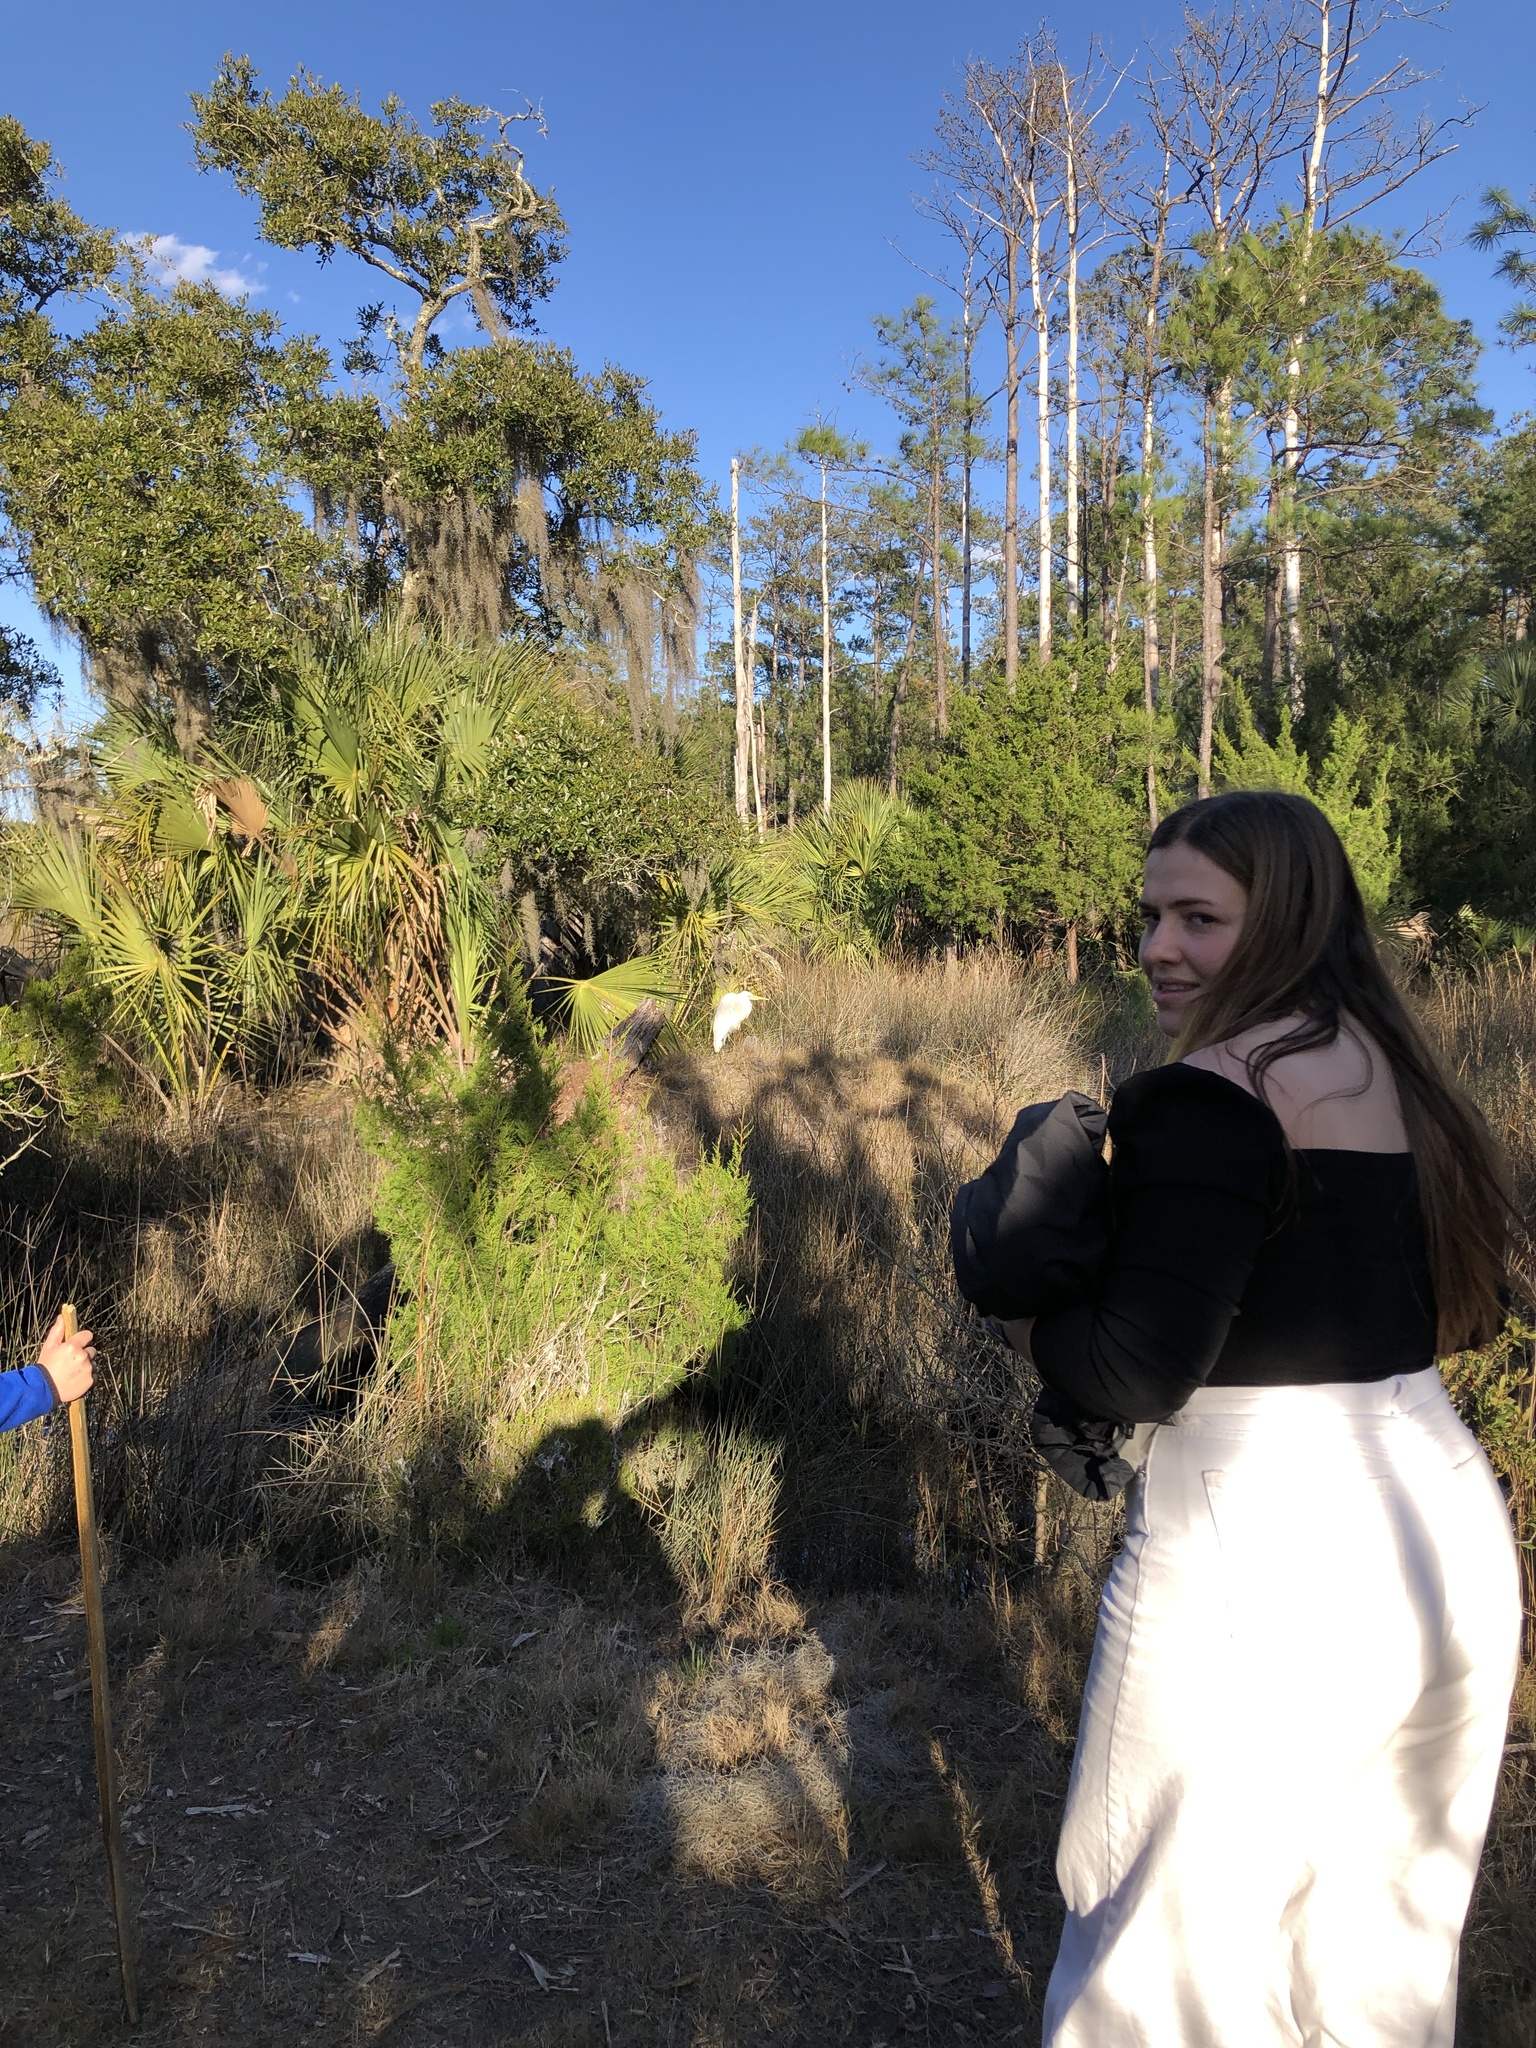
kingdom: Animalia
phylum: Chordata
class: Aves
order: Pelecaniformes
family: Ardeidae
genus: Ardea
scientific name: Ardea alba
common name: Great egret
